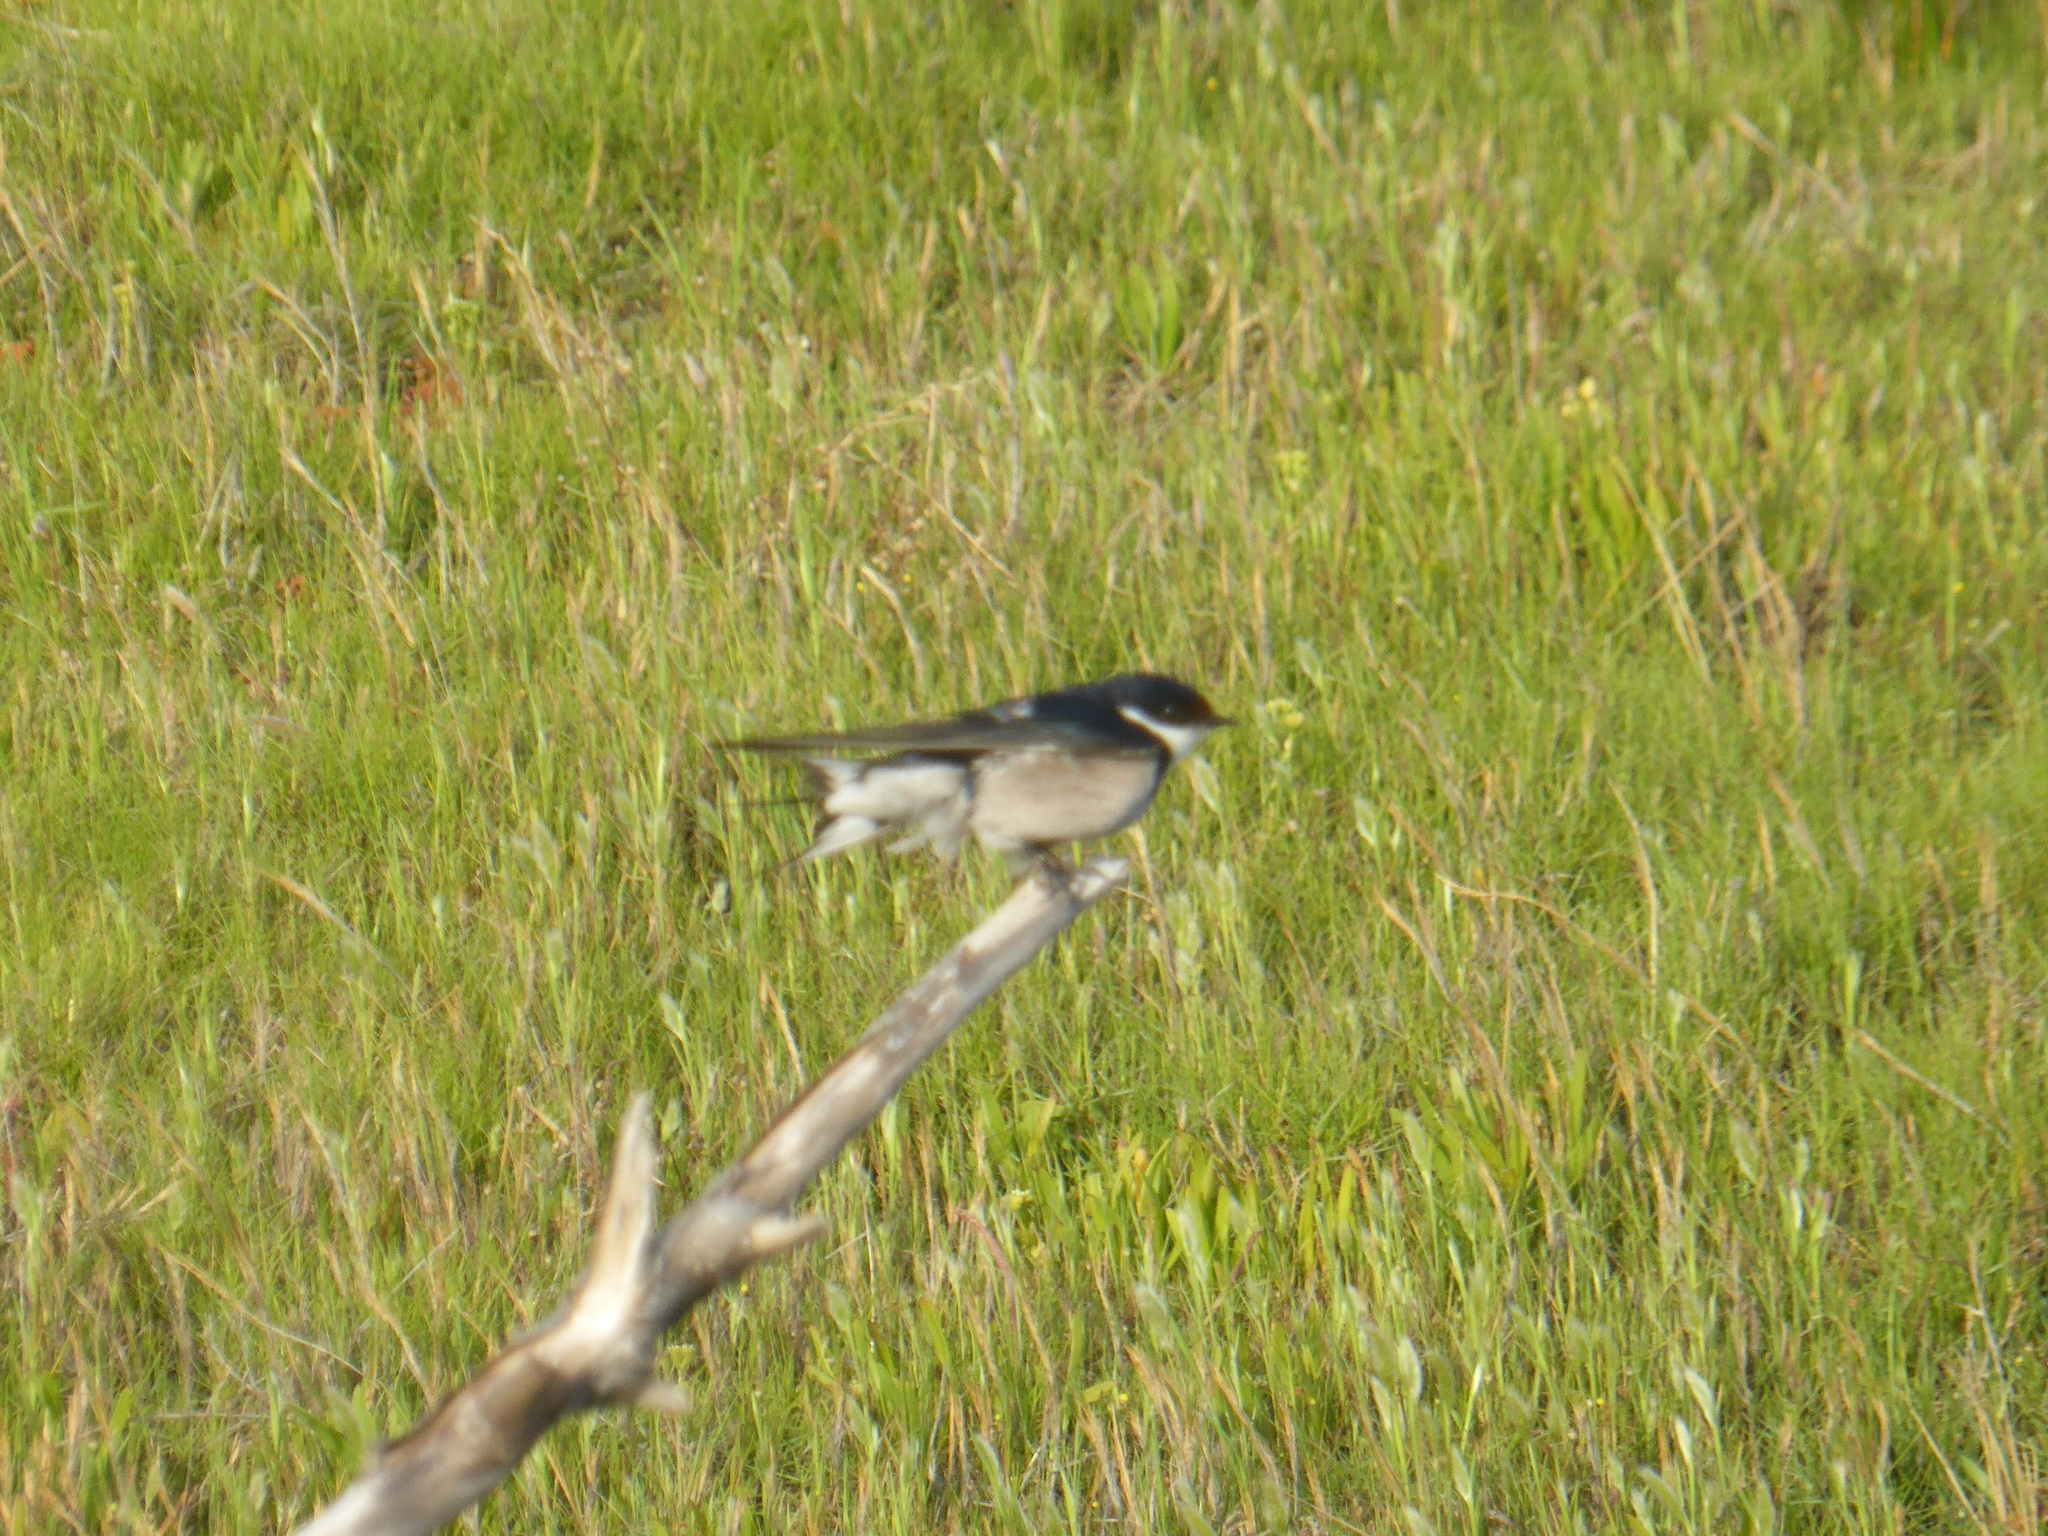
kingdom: Animalia
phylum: Chordata
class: Aves
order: Passeriformes
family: Hirundinidae
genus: Hirundo
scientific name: Hirundo albigularis
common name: White-throated swallow
